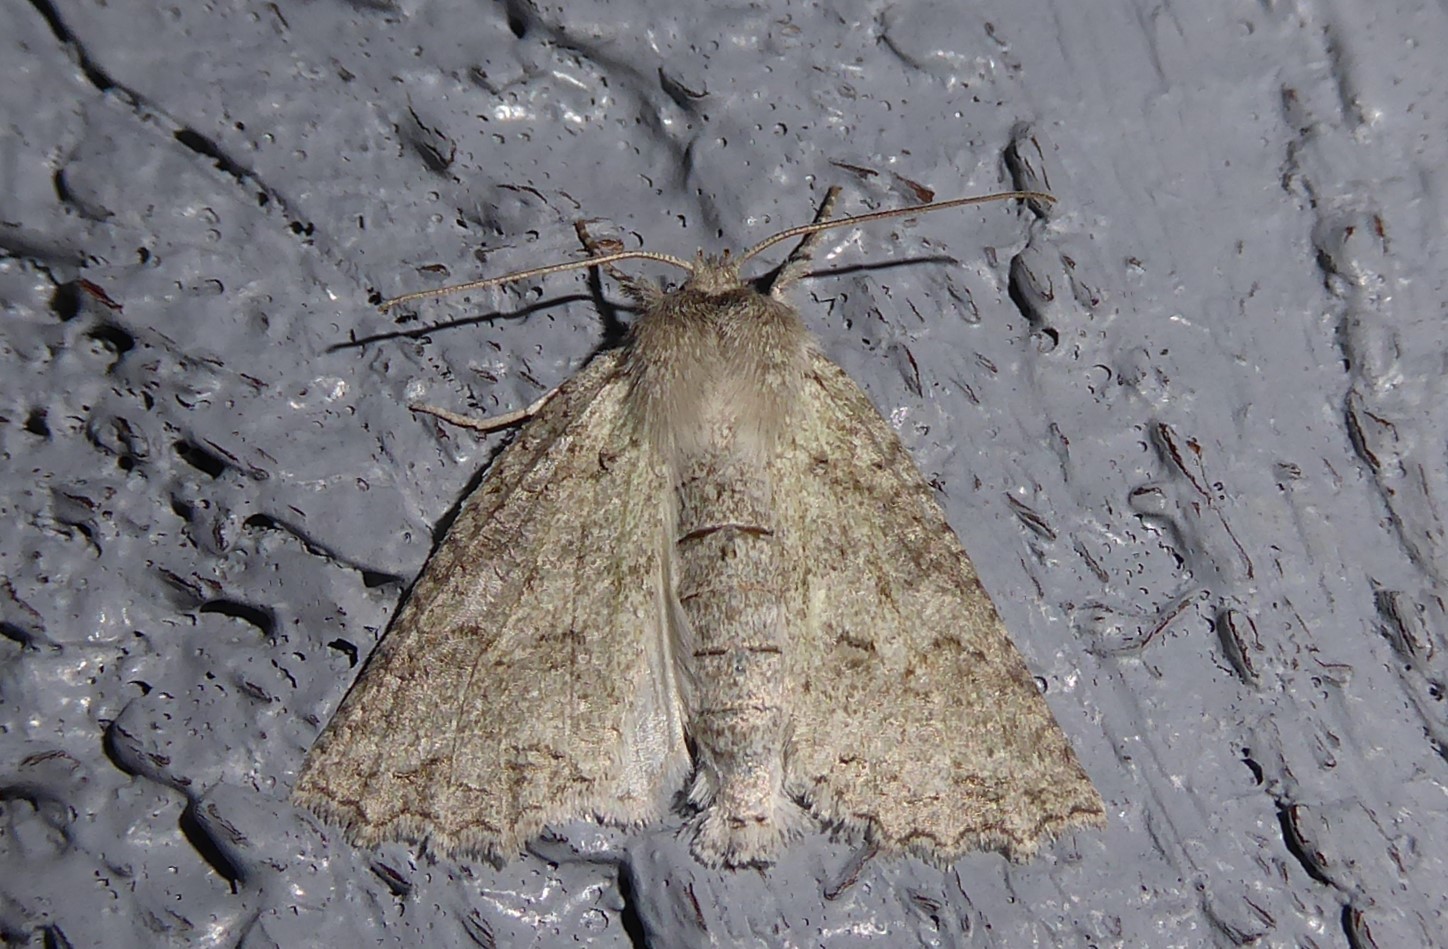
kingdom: Animalia
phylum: Arthropoda
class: Insecta
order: Lepidoptera
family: Geometridae
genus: Declana
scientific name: Declana niveata
